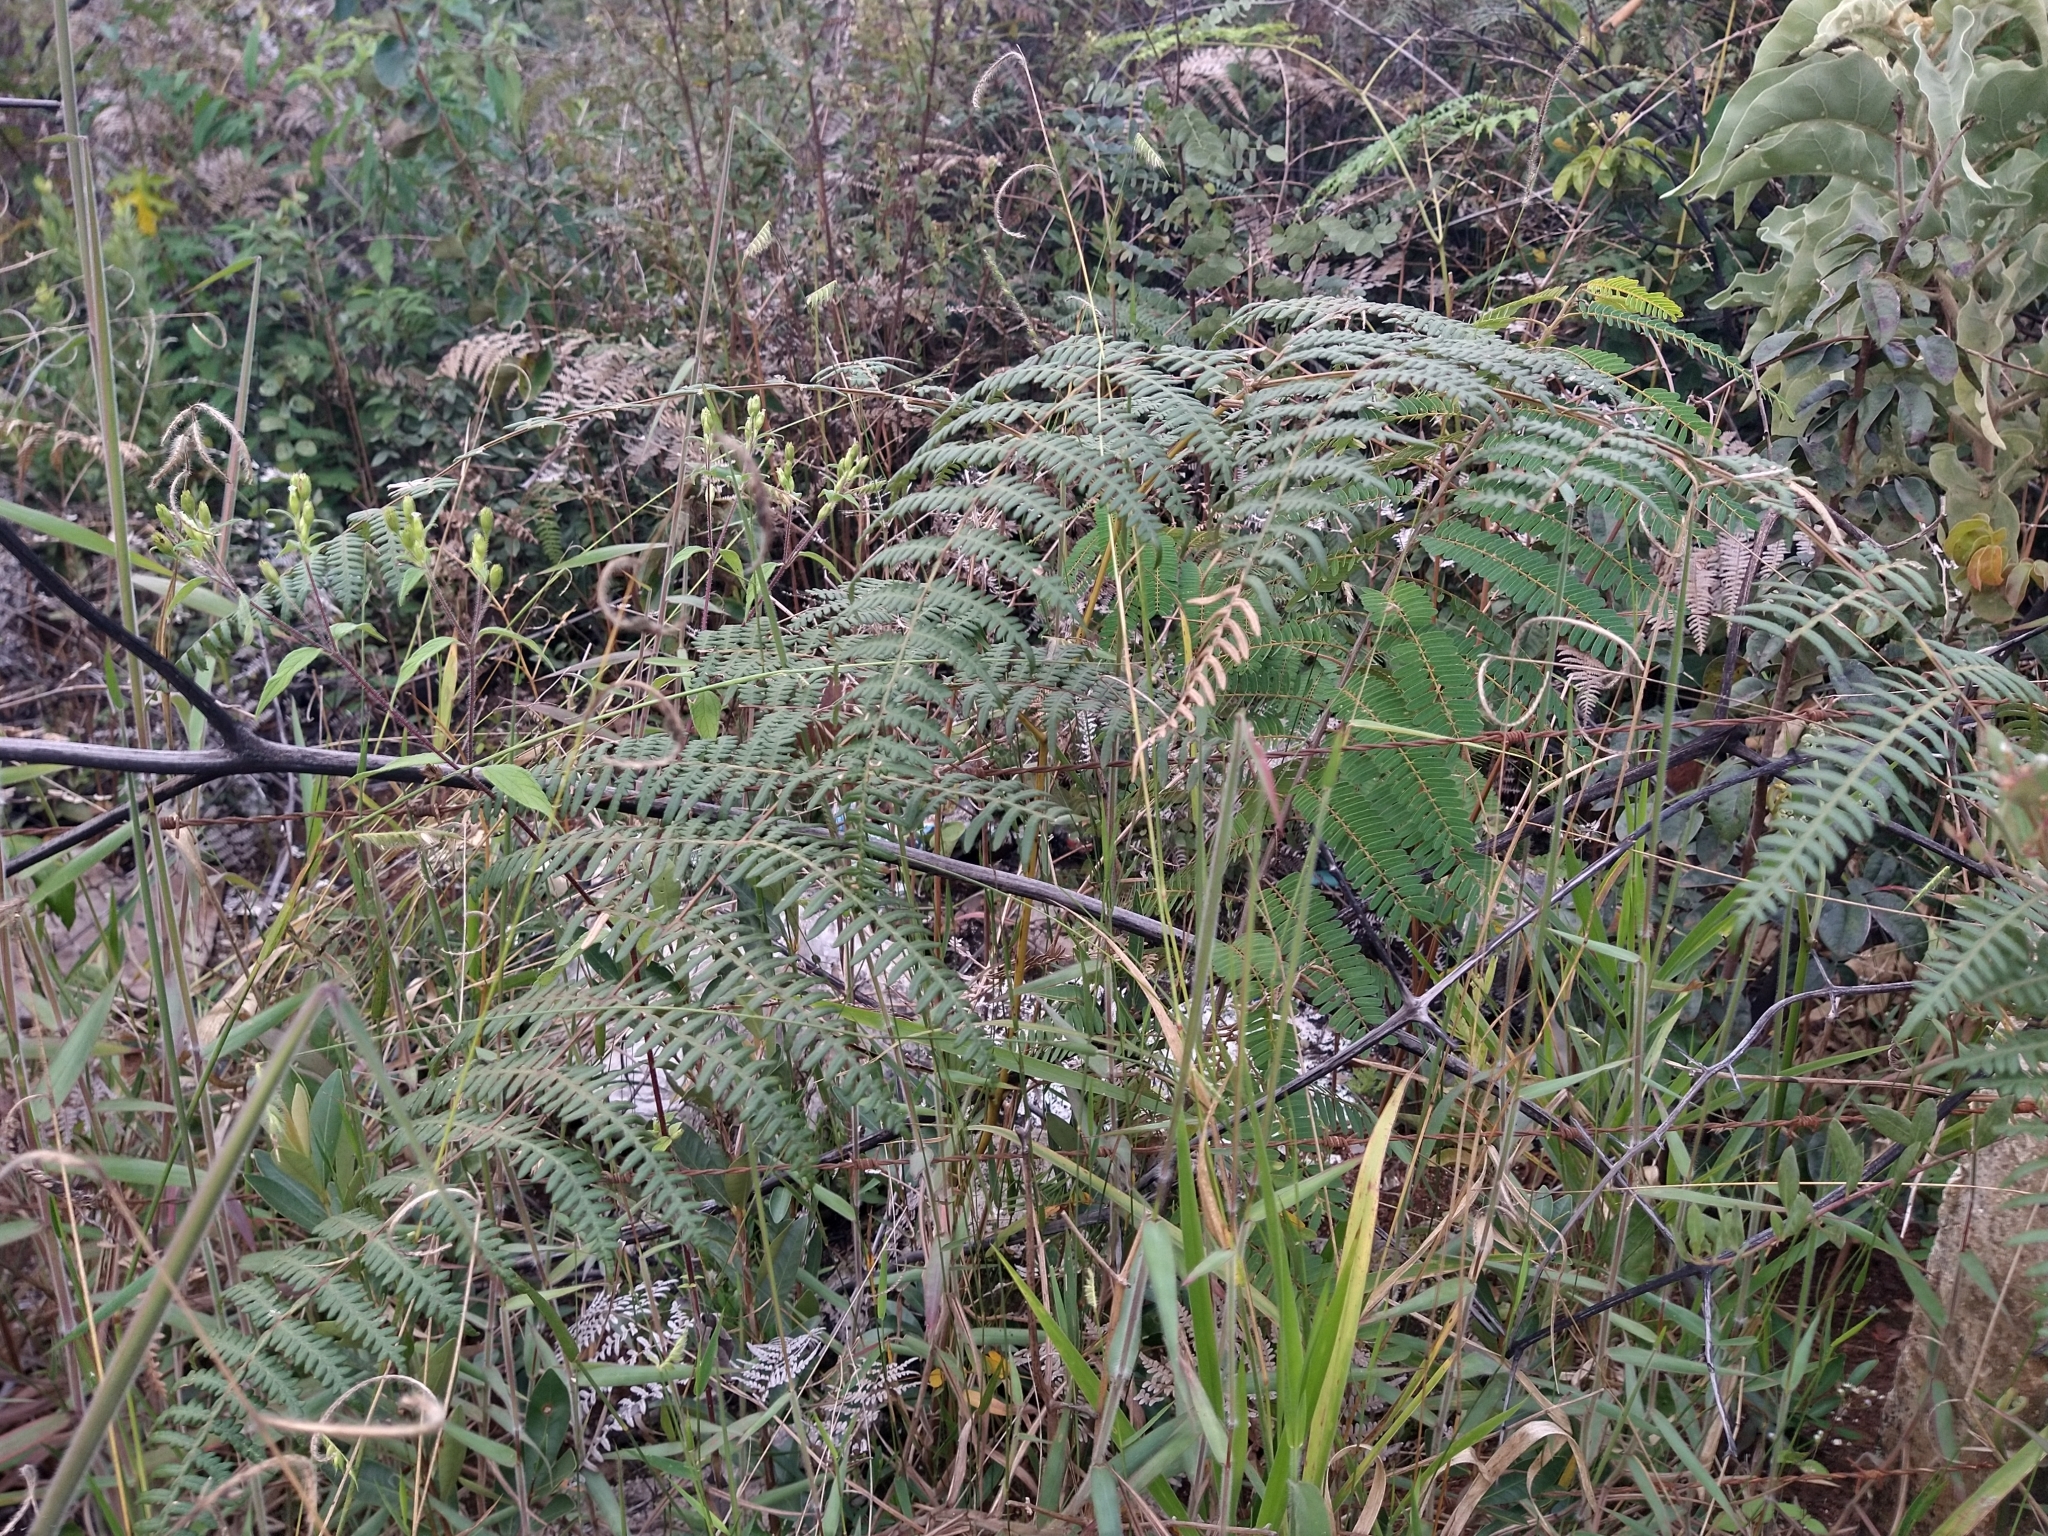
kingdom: Plantae
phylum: Tracheophyta
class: Polypodiopsida
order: Polypodiales
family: Dennstaedtiaceae
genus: Pteridium
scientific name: Pteridium esculentum
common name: Bracken fern
